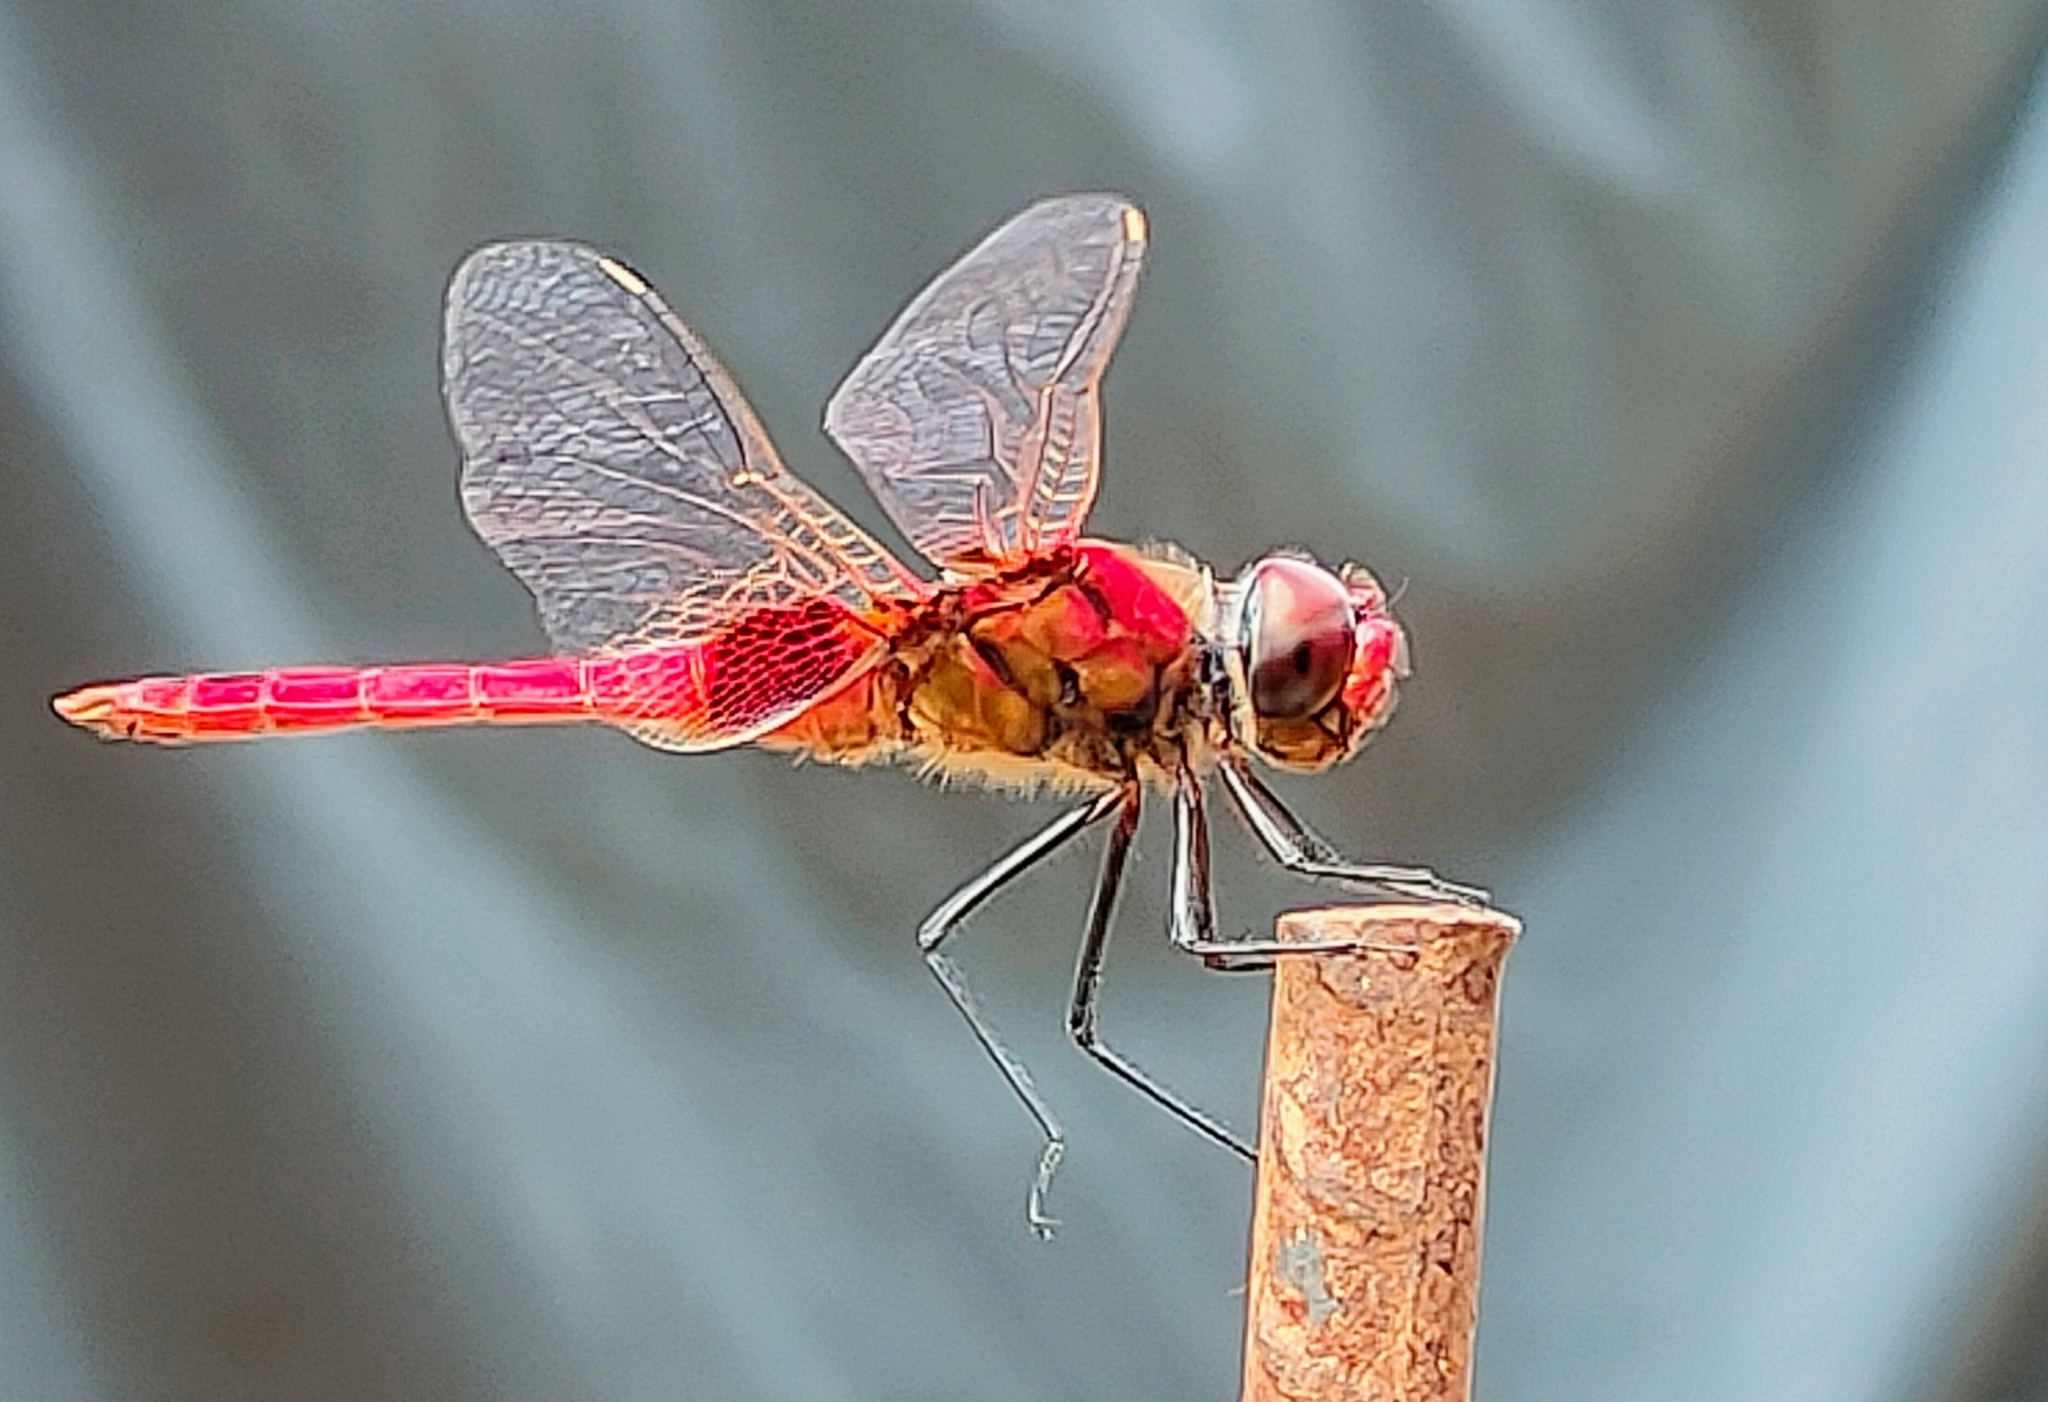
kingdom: Animalia
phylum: Arthropoda
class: Insecta
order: Odonata
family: Libellulidae
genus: Urothemis
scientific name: Urothemis signata
